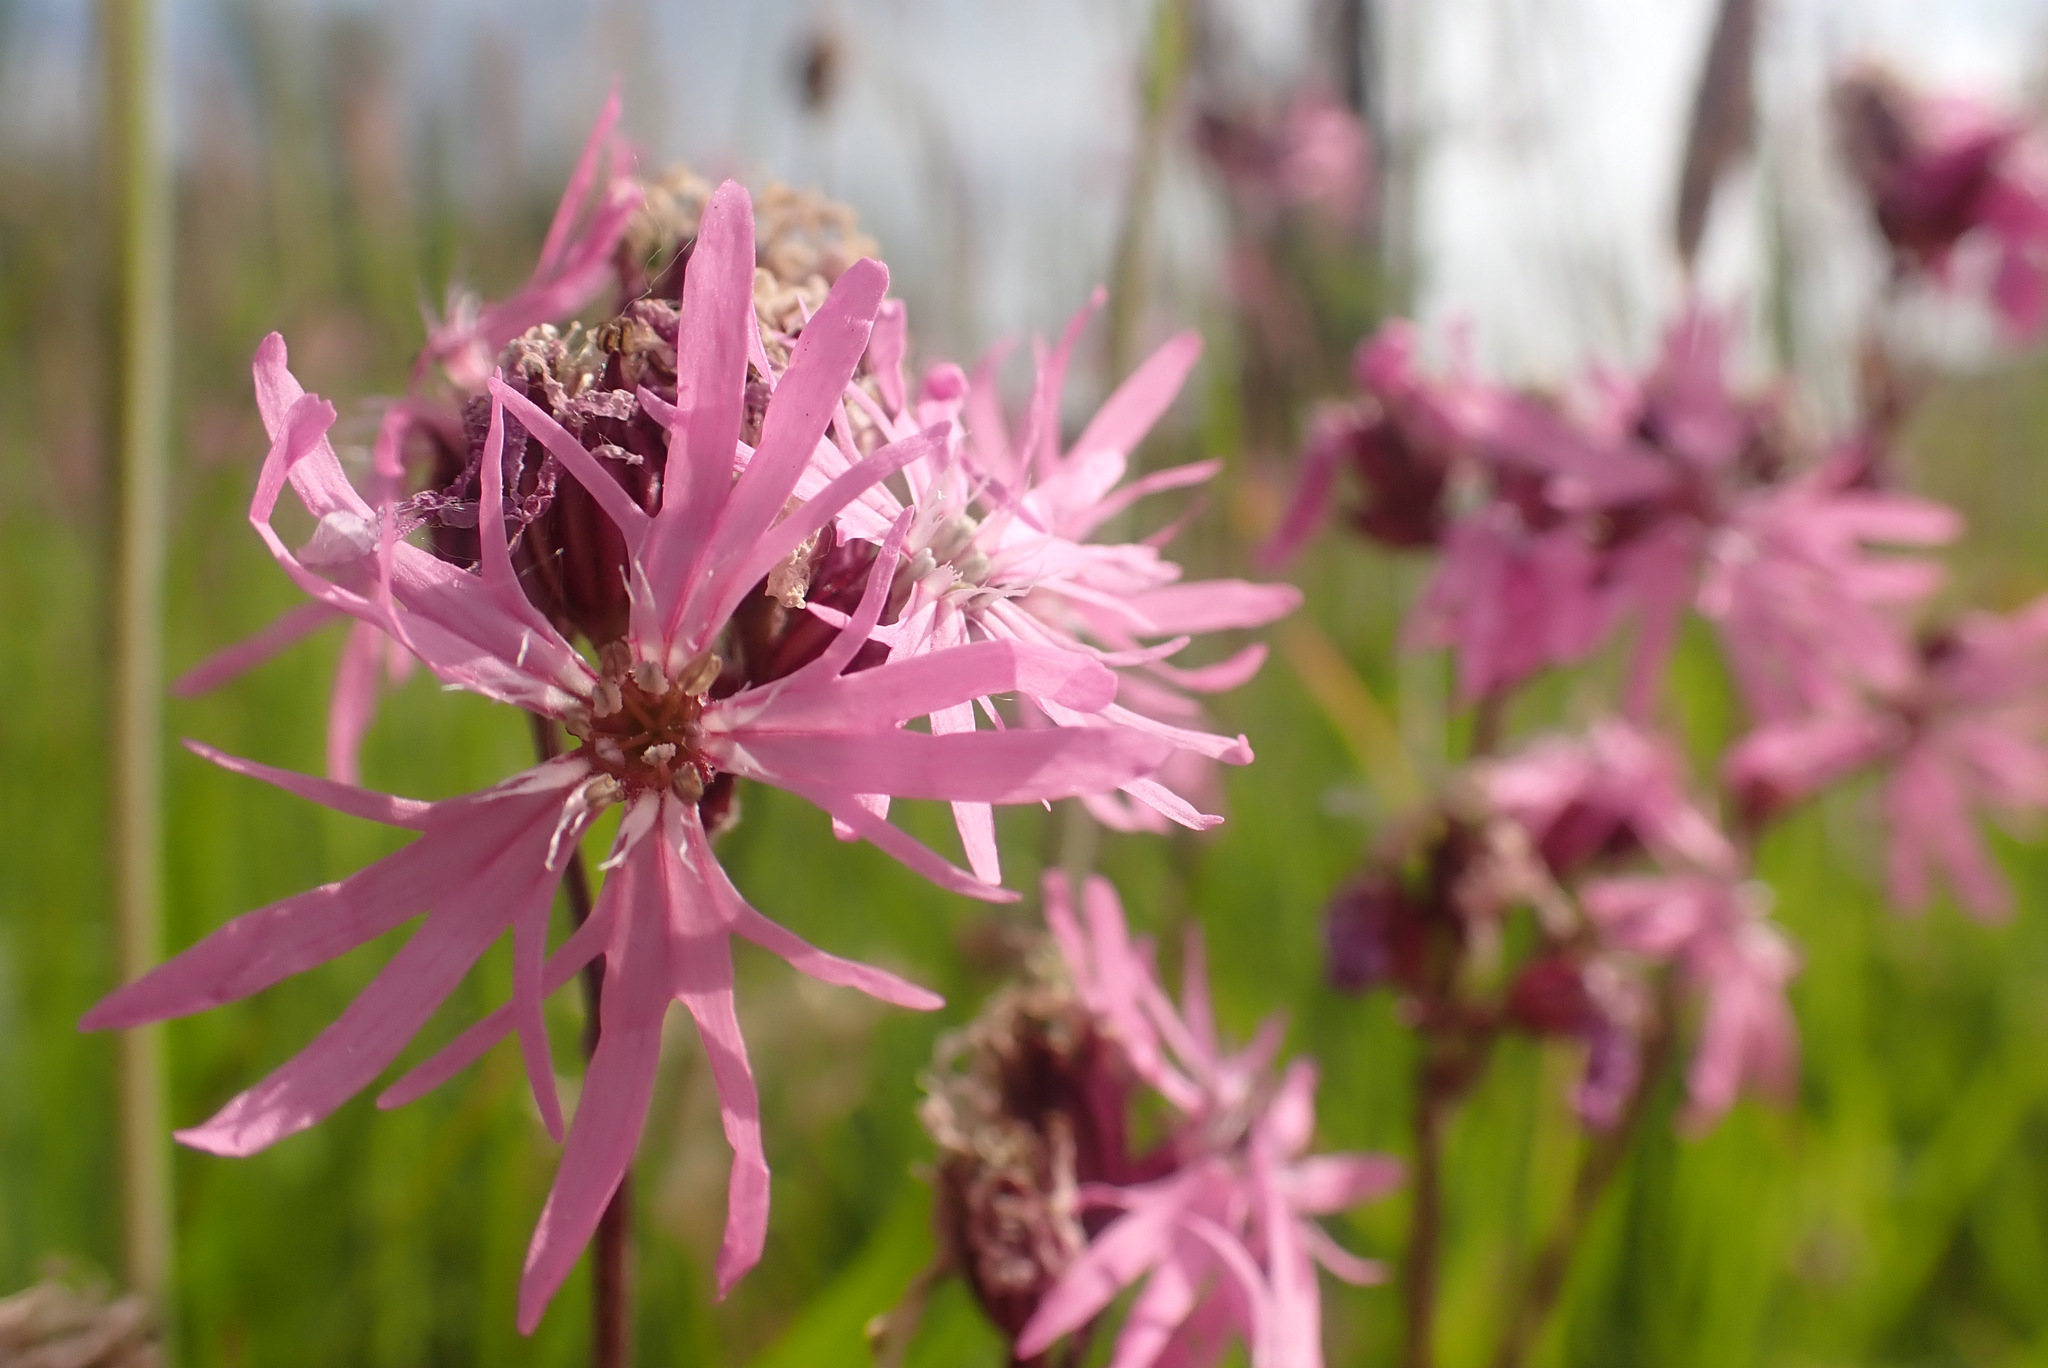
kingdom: Plantae
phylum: Tracheophyta
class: Magnoliopsida
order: Caryophyllales
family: Caryophyllaceae
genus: Silene
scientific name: Silene flos-cuculi
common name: Ragged-robin
